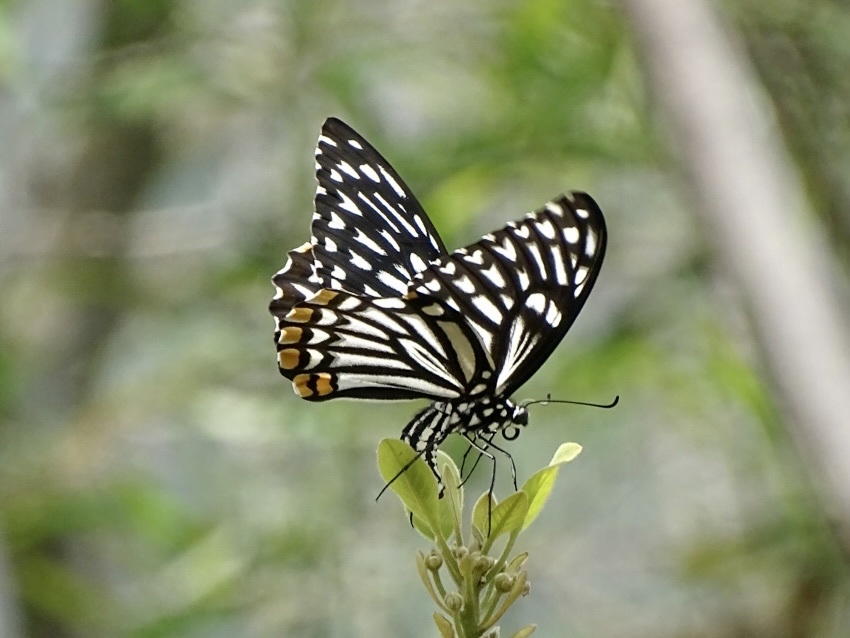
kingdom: Animalia
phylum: Arthropoda
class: Insecta
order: Lepidoptera
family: Papilionidae
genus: Chilasa
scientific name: Chilasa clytia
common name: Common mime
